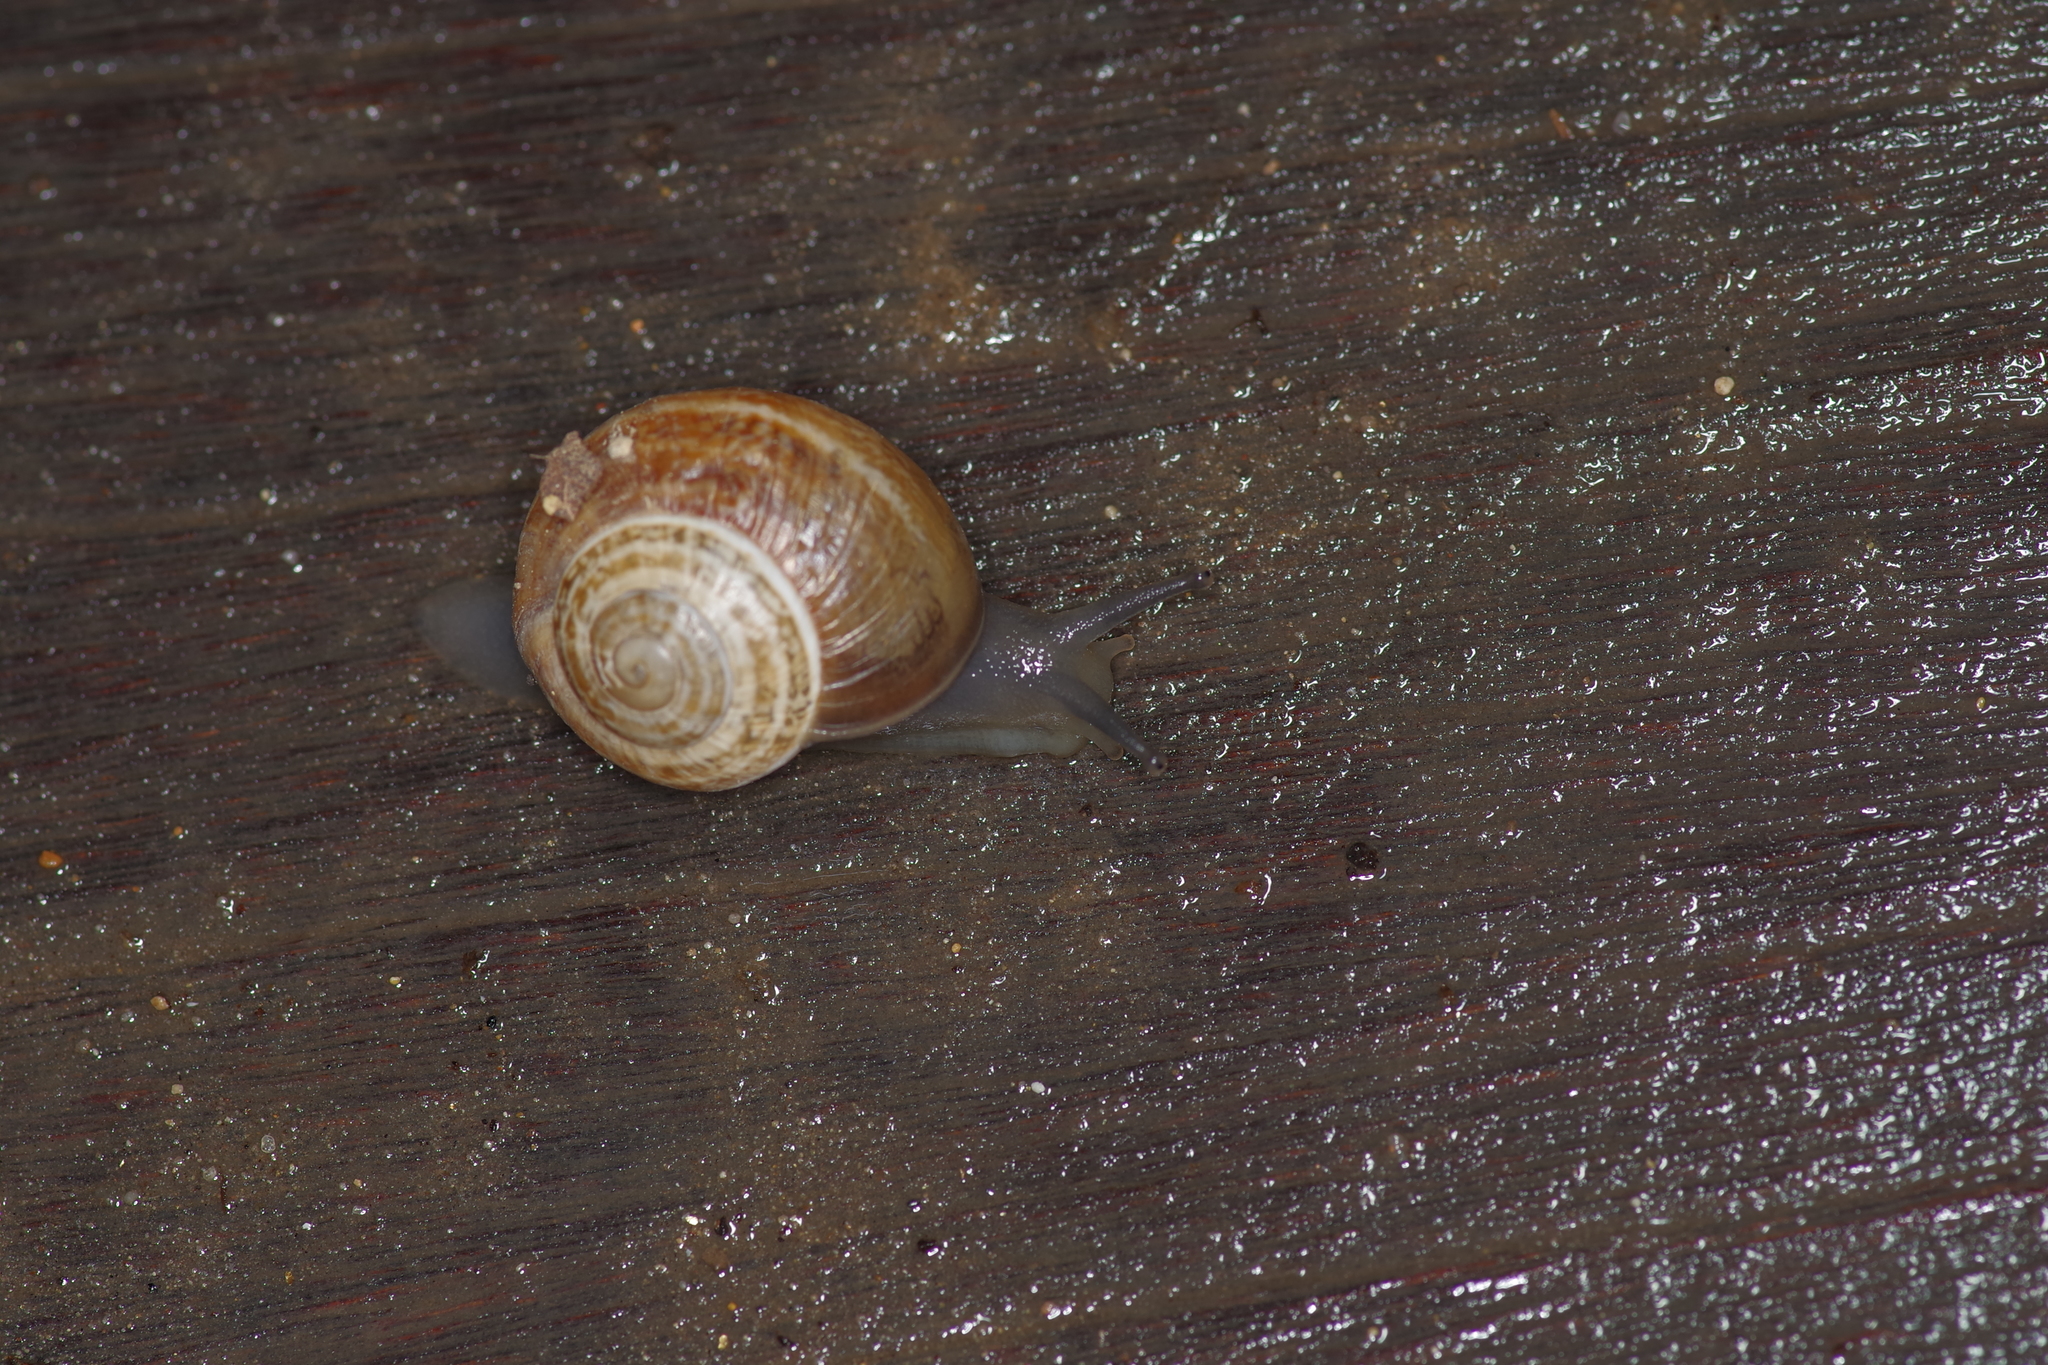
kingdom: Animalia
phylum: Mollusca
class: Gastropoda
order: Stylommatophora
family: Helicidae
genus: Otala
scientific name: Otala lactea
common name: Milk snail
